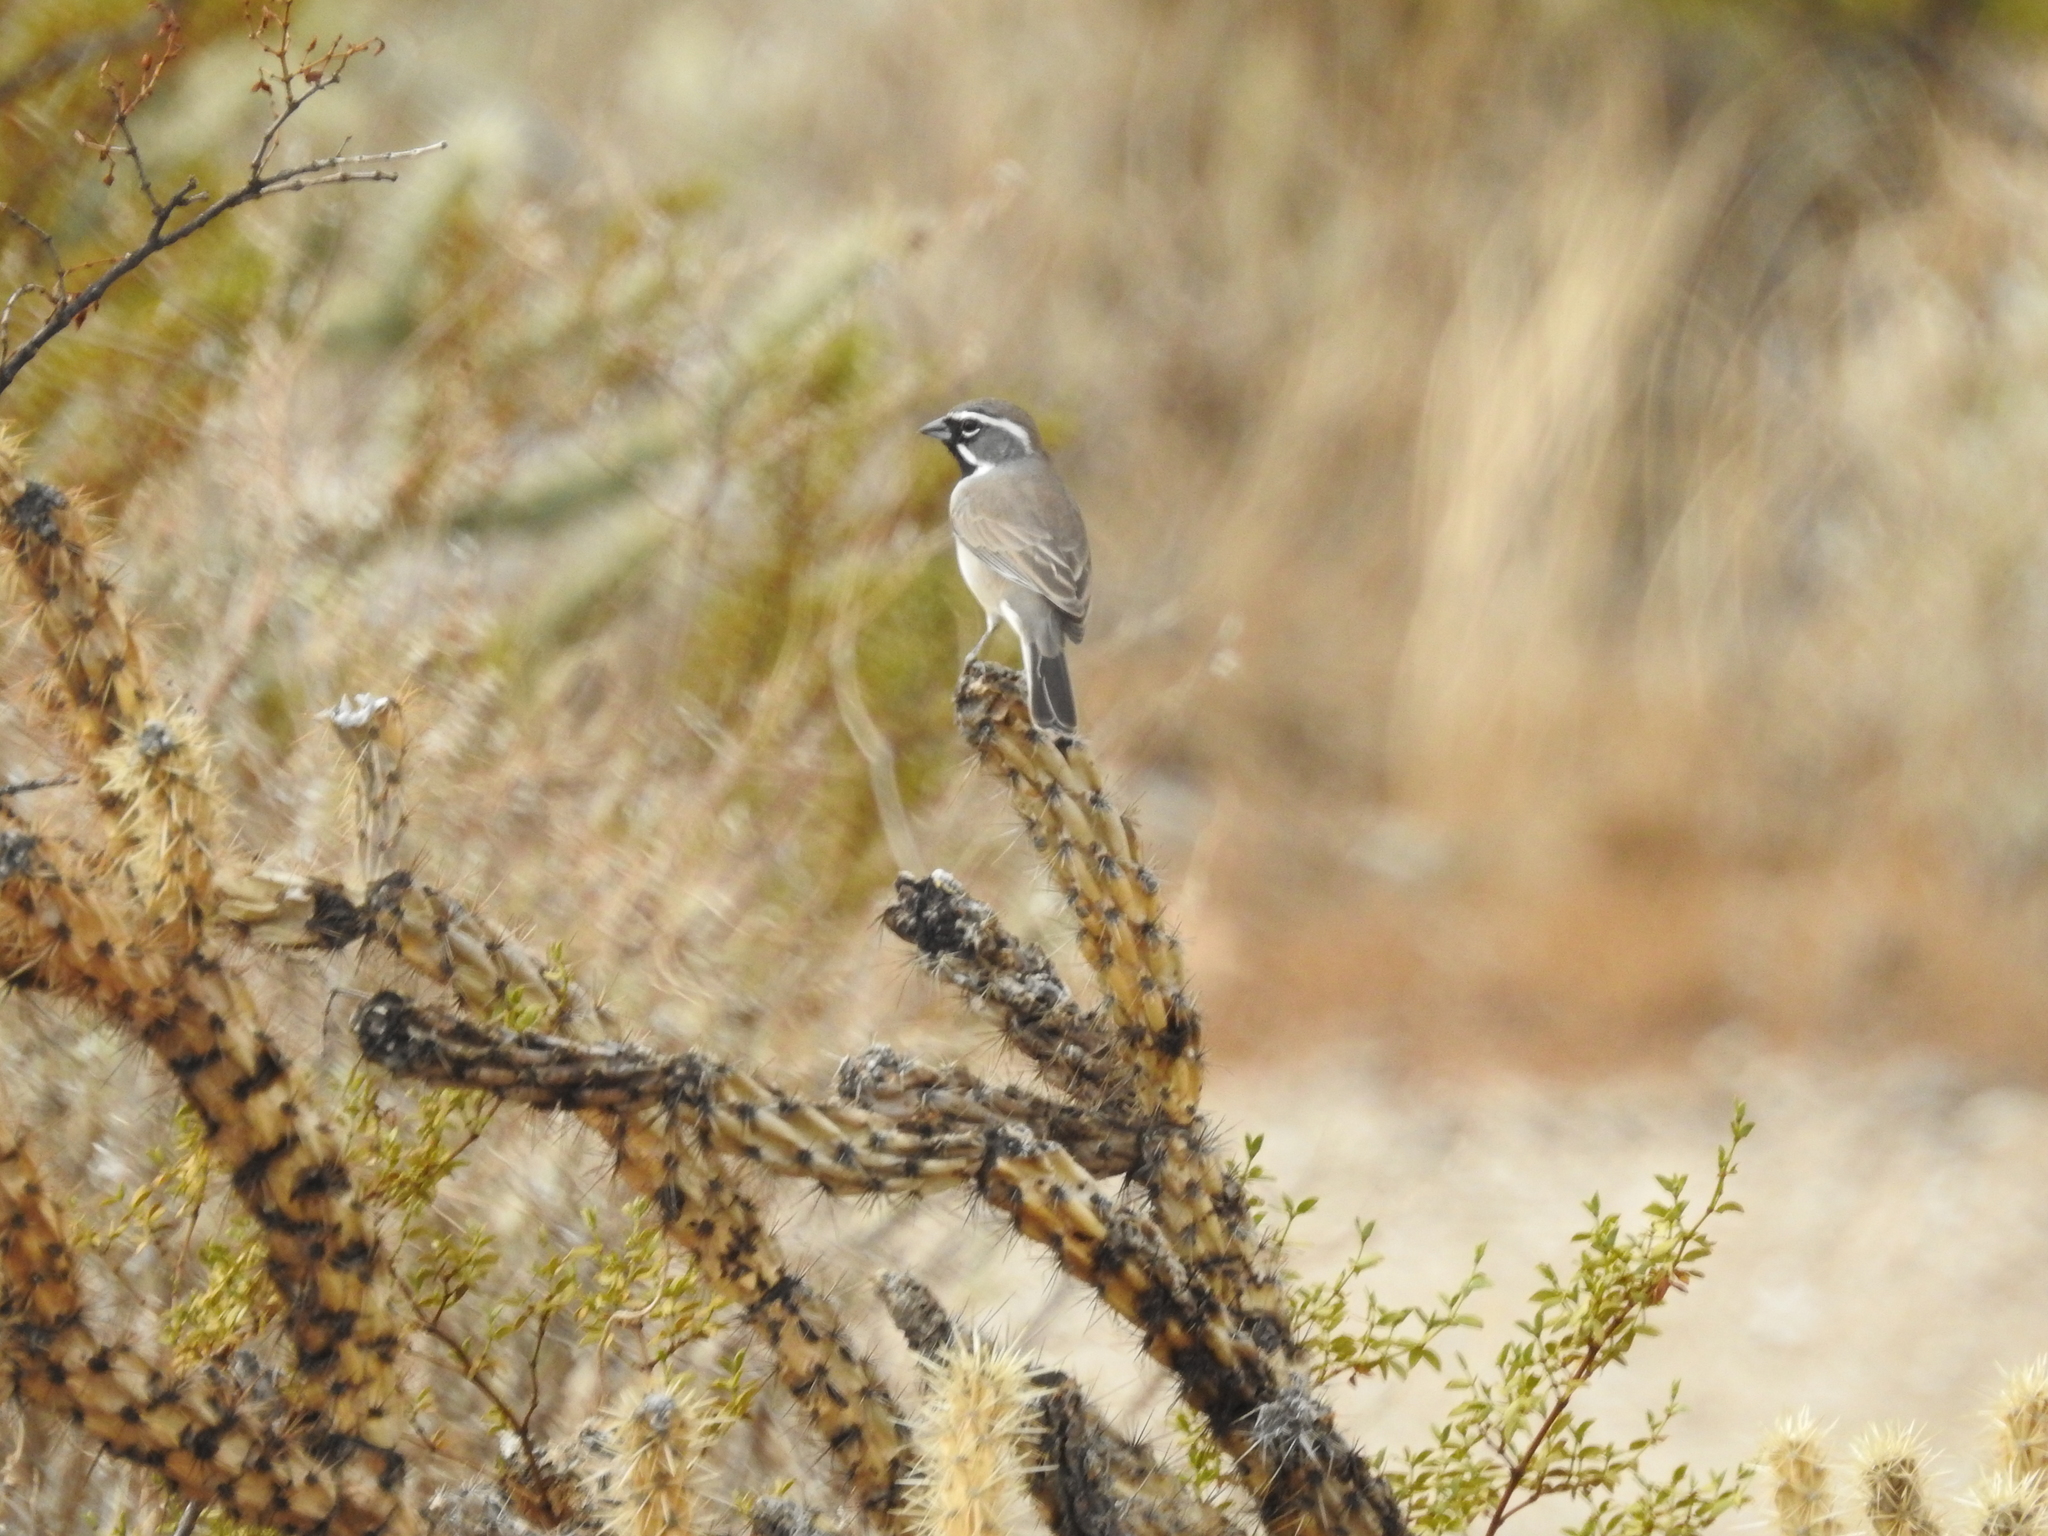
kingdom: Animalia
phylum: Chordata
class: Aves
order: Passeriformes
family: Passerellidae
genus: Amphispiza
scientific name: Amphispiza bilineata
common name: Black-throated sparrow
